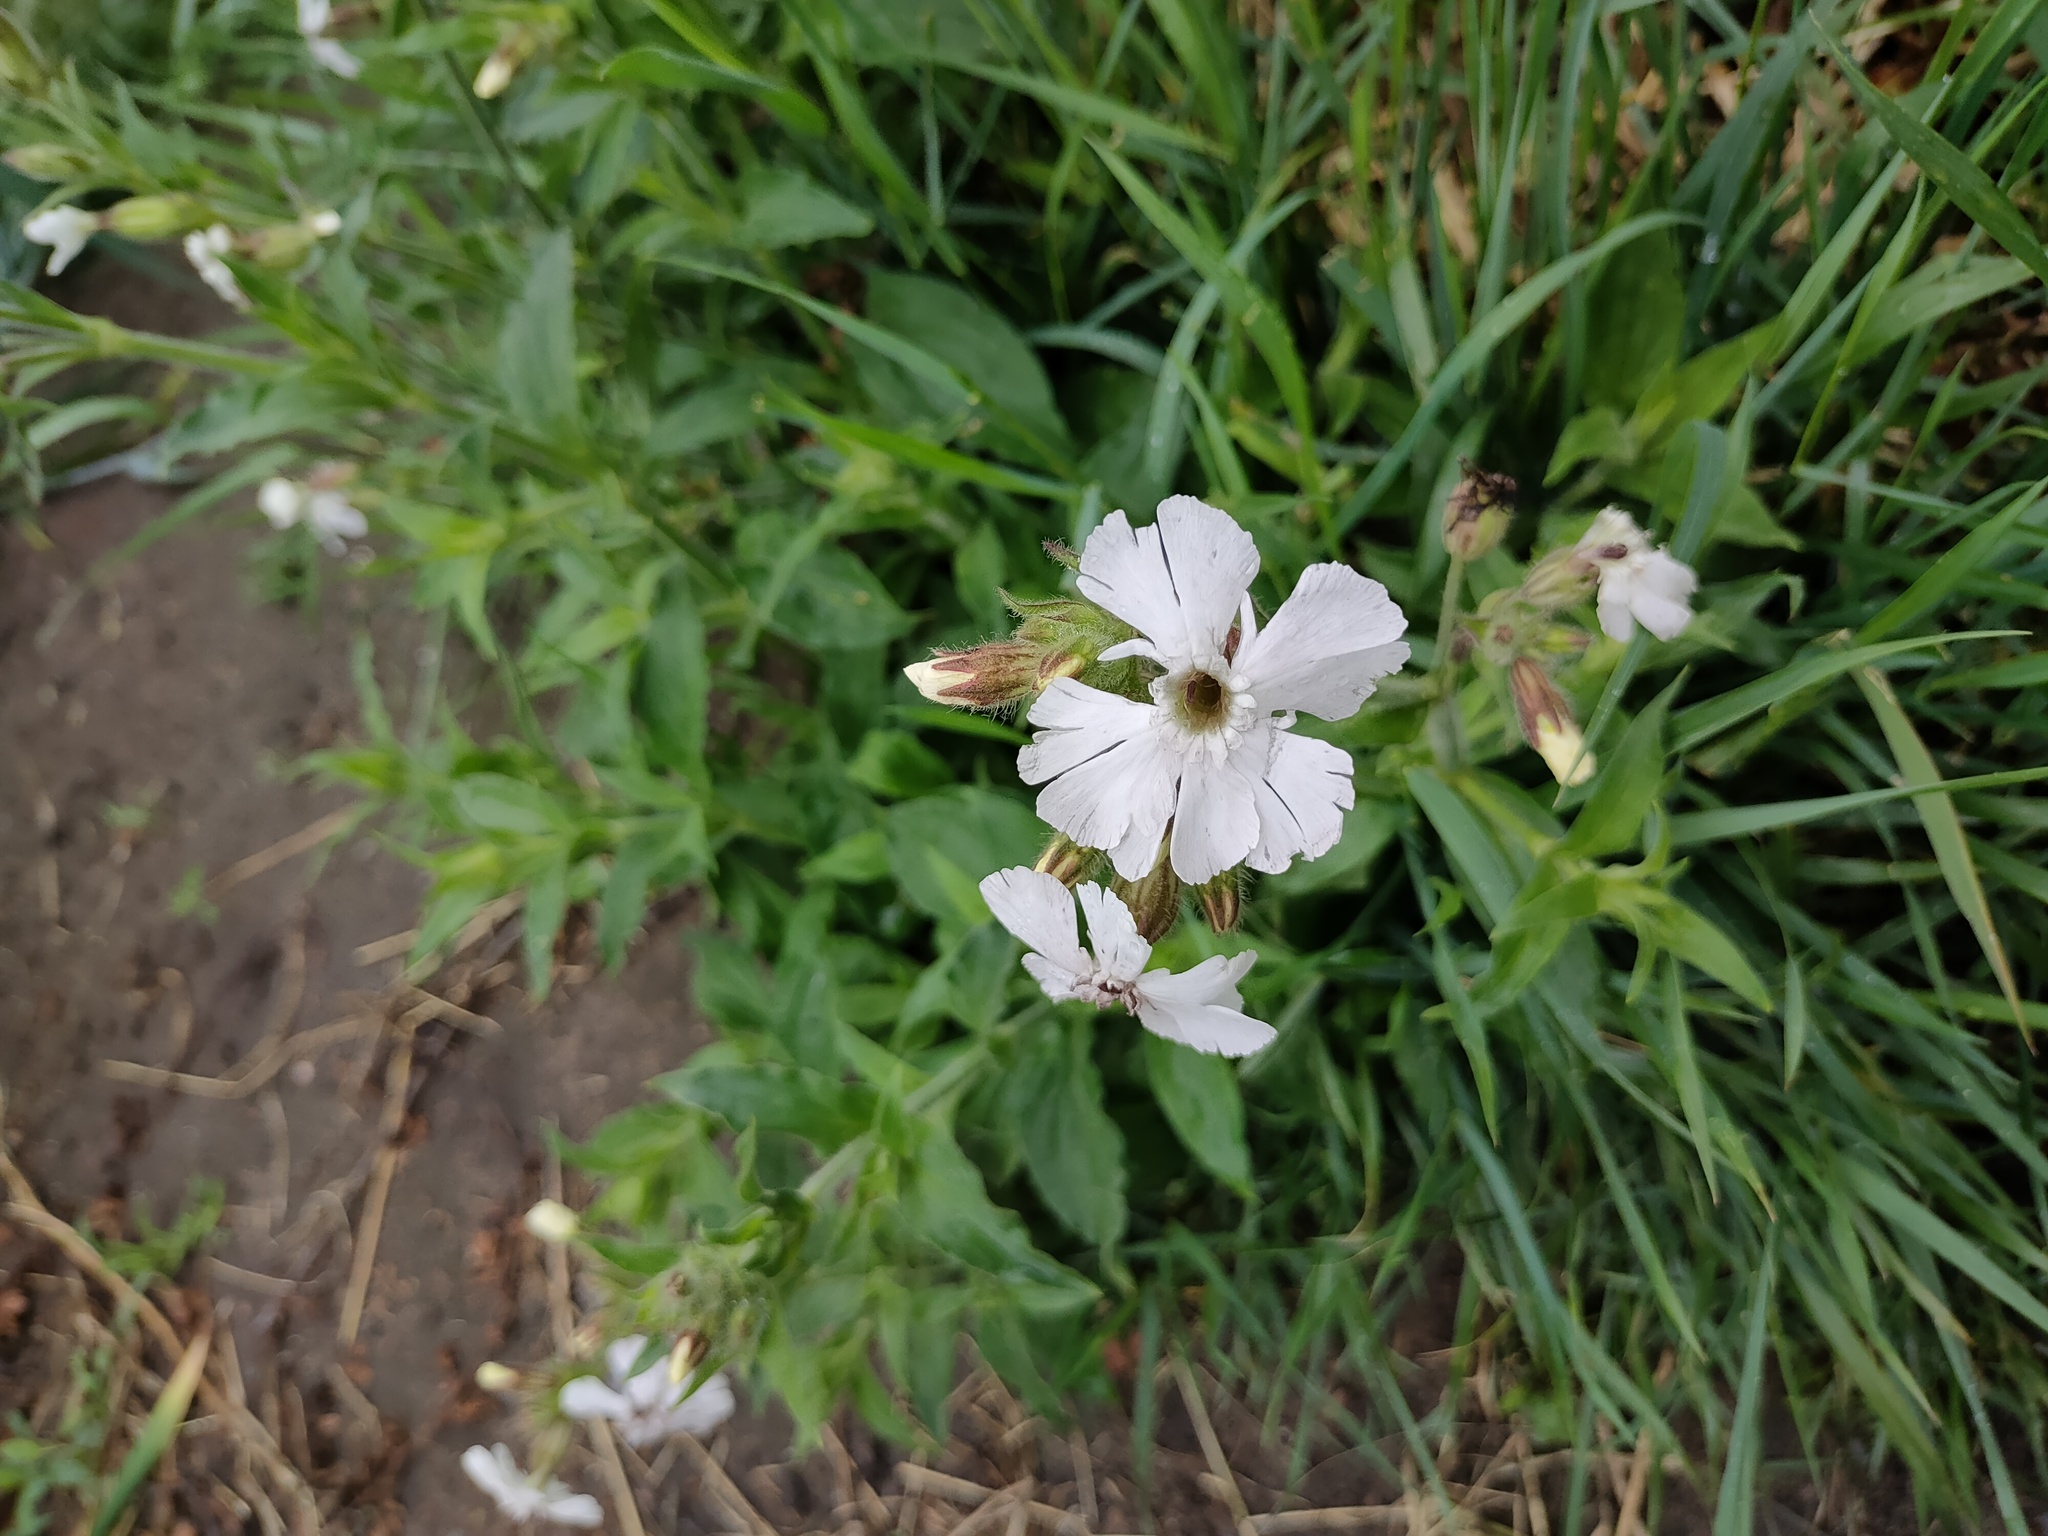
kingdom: Plantae
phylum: Tracheophyta
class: Magnoliopsida
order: Caryophyllales
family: Caryophyllaceae
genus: Silene
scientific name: Silene latifolia
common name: White campion
